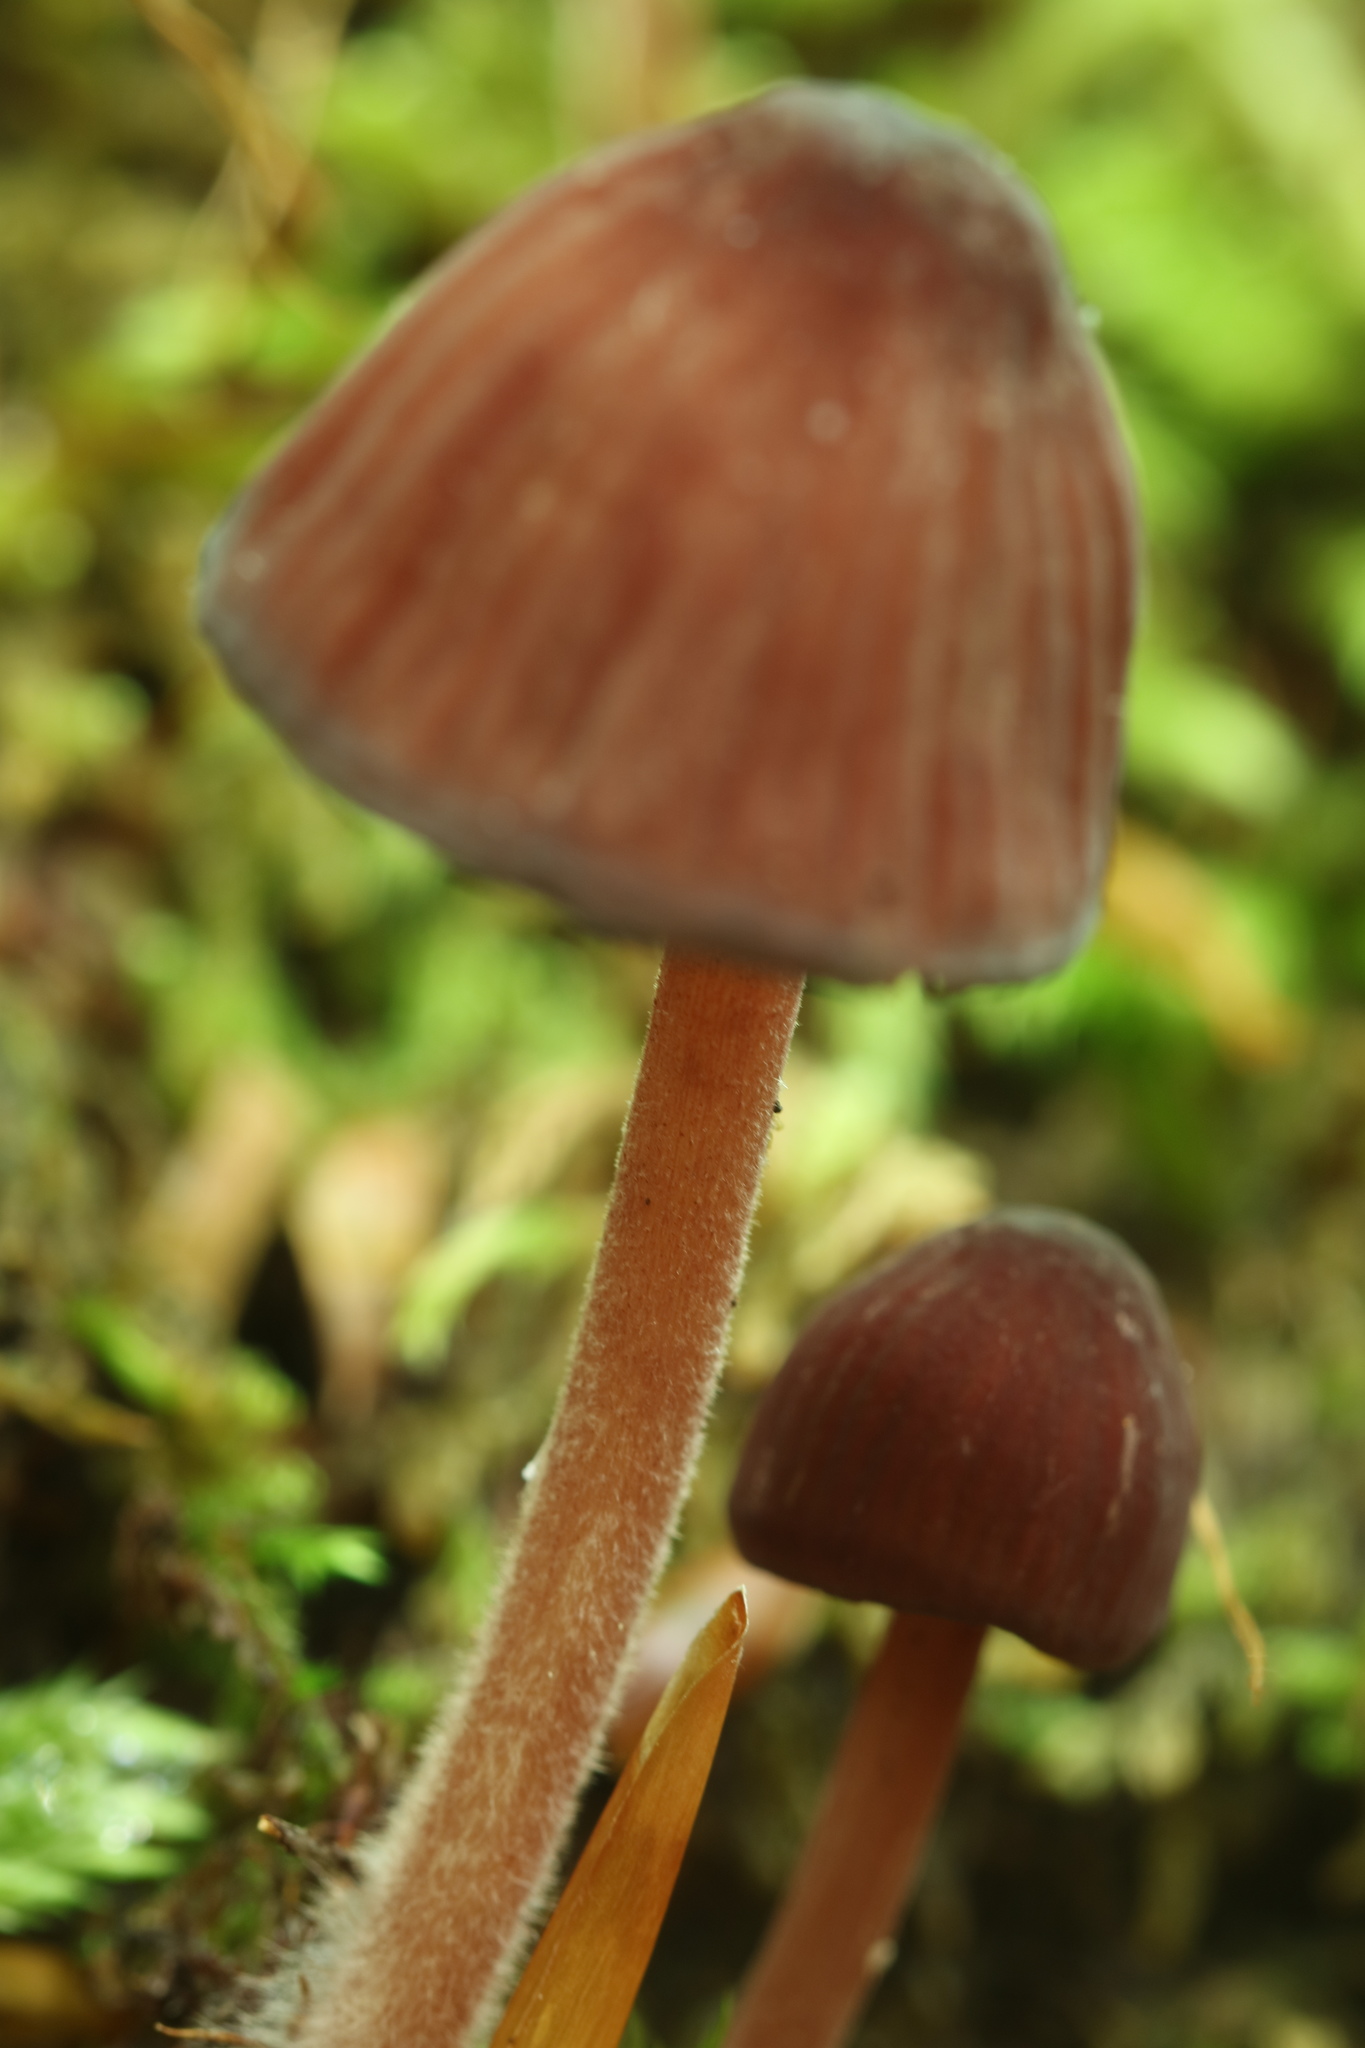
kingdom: Fungi
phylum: Basidiomycota
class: Agaricomycetes
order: Agaricales
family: Mycenaceae
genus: Mycena
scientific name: Mycena haematopus
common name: Burgundydrop bonnet
